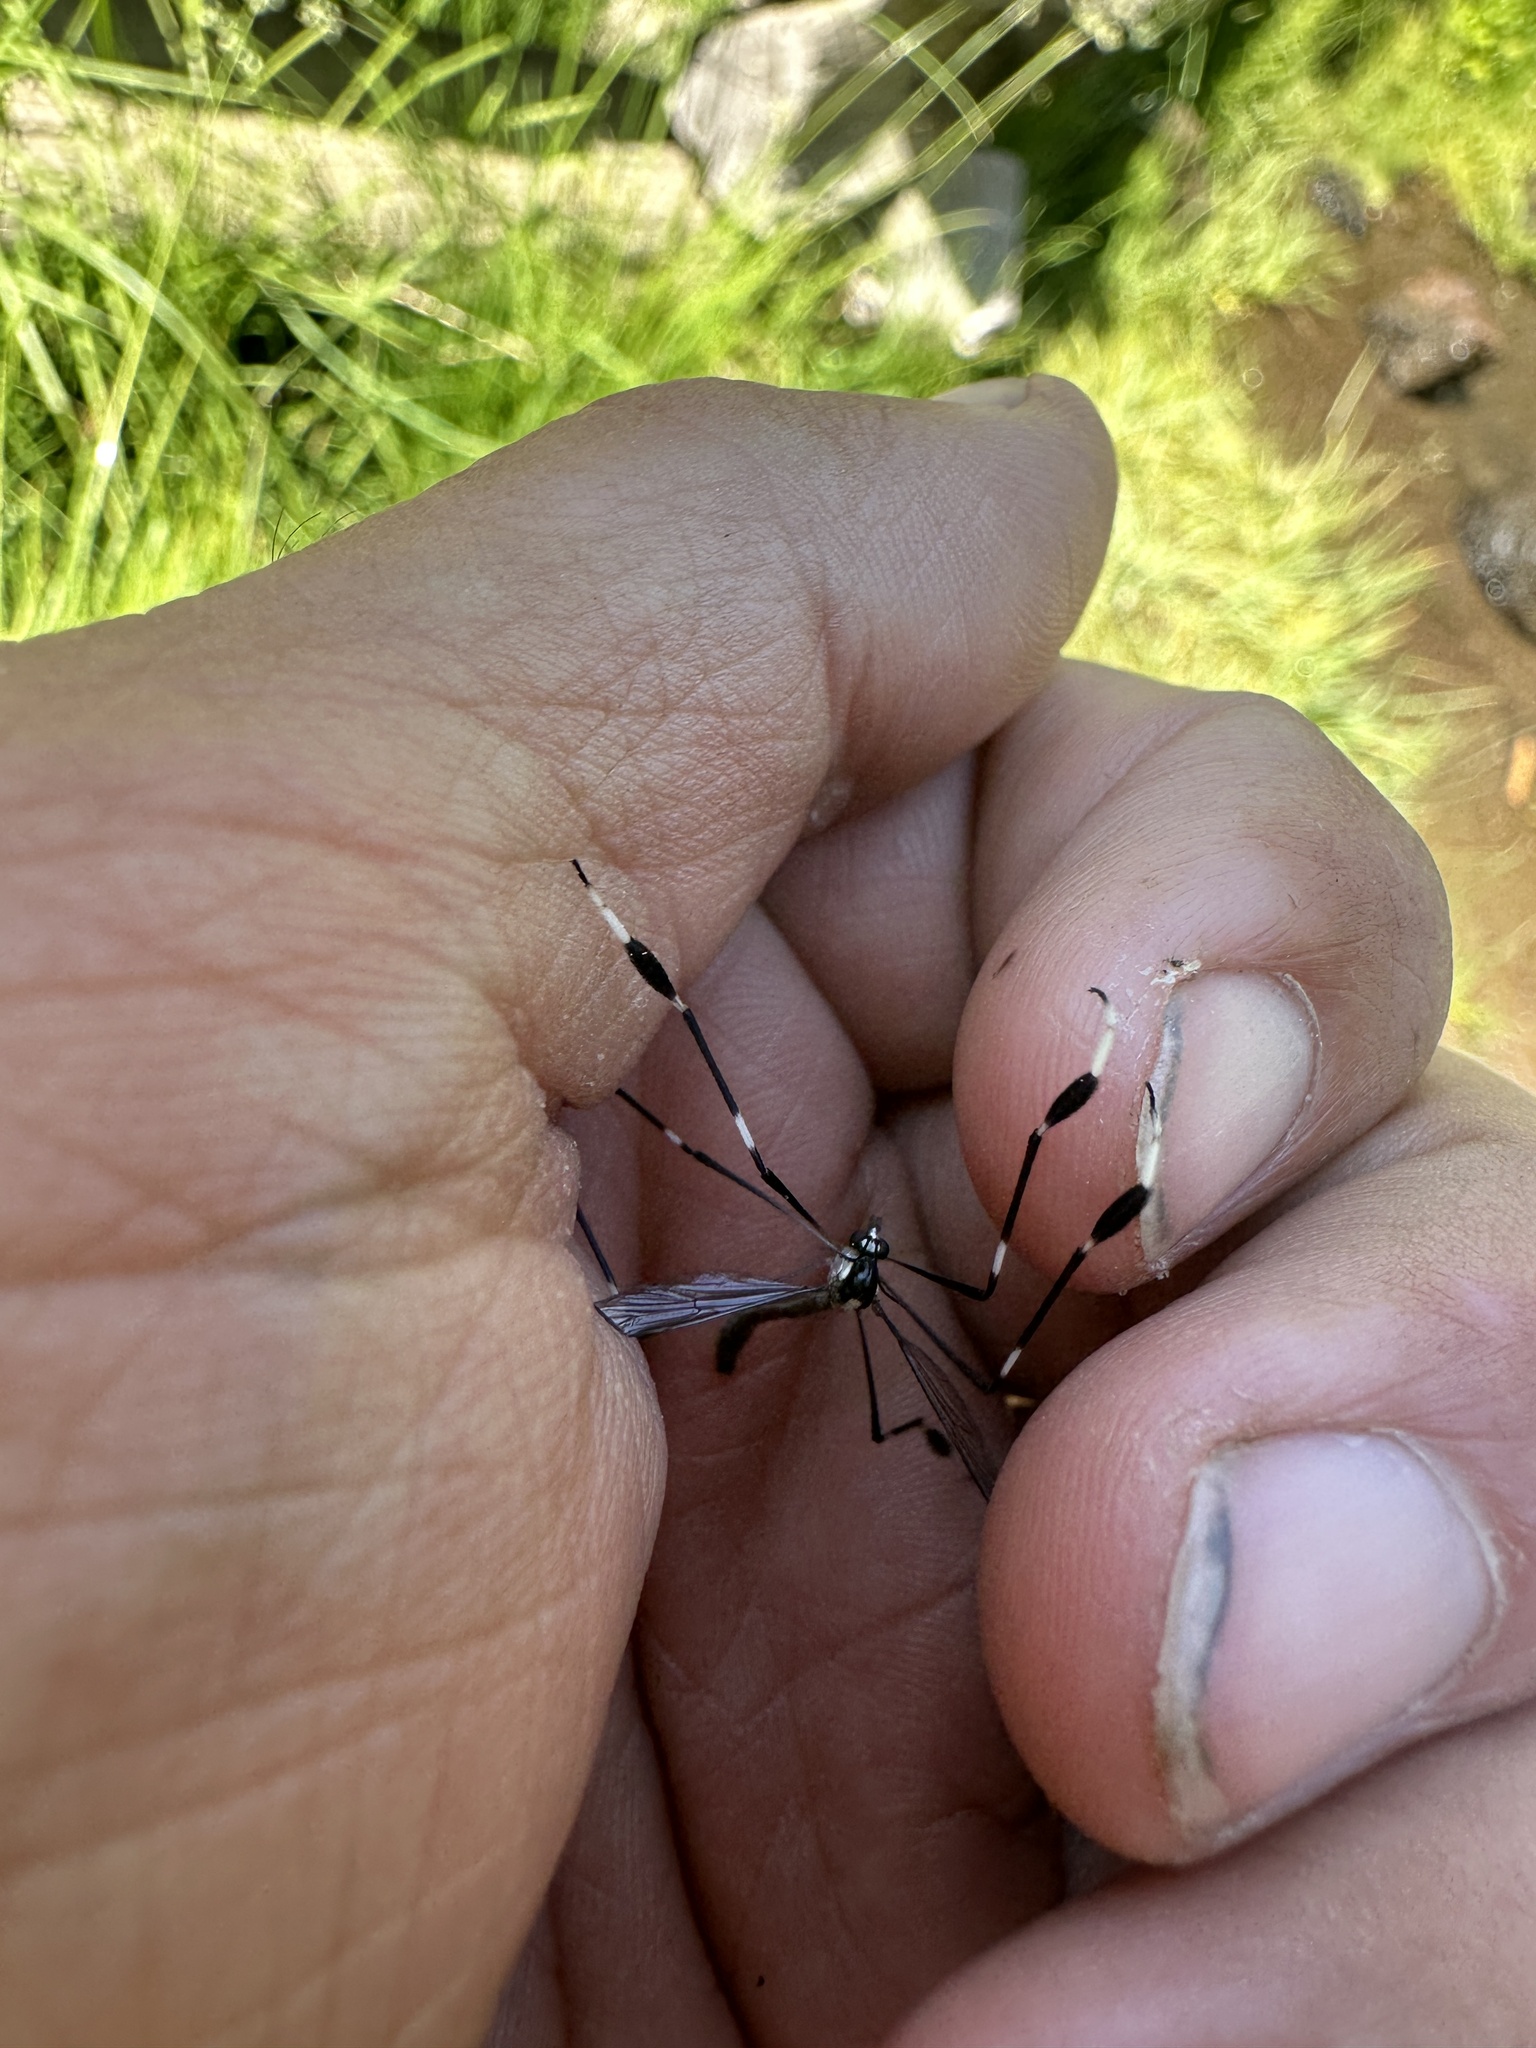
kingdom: Animalia
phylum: Arthropoda
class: Insecta
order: Diptera
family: Ptychopteridae
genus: Bittacomorpha
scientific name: Bittacomorpha occidentalis
